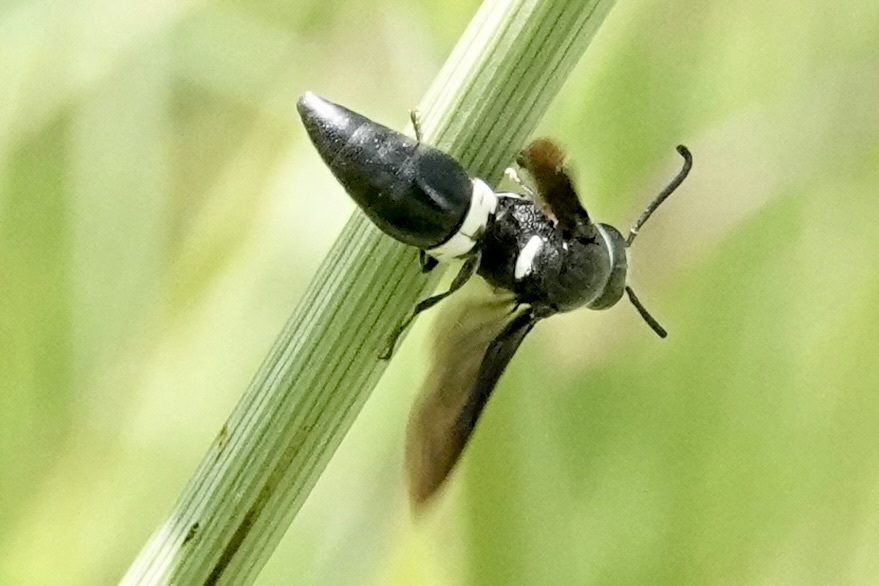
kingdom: Animalia
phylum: Arthropoda
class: Insecta
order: Hymenoptera
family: Eumenidae
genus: Monobia
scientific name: Monobia quadridens
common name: Four-toothed mason wasp
